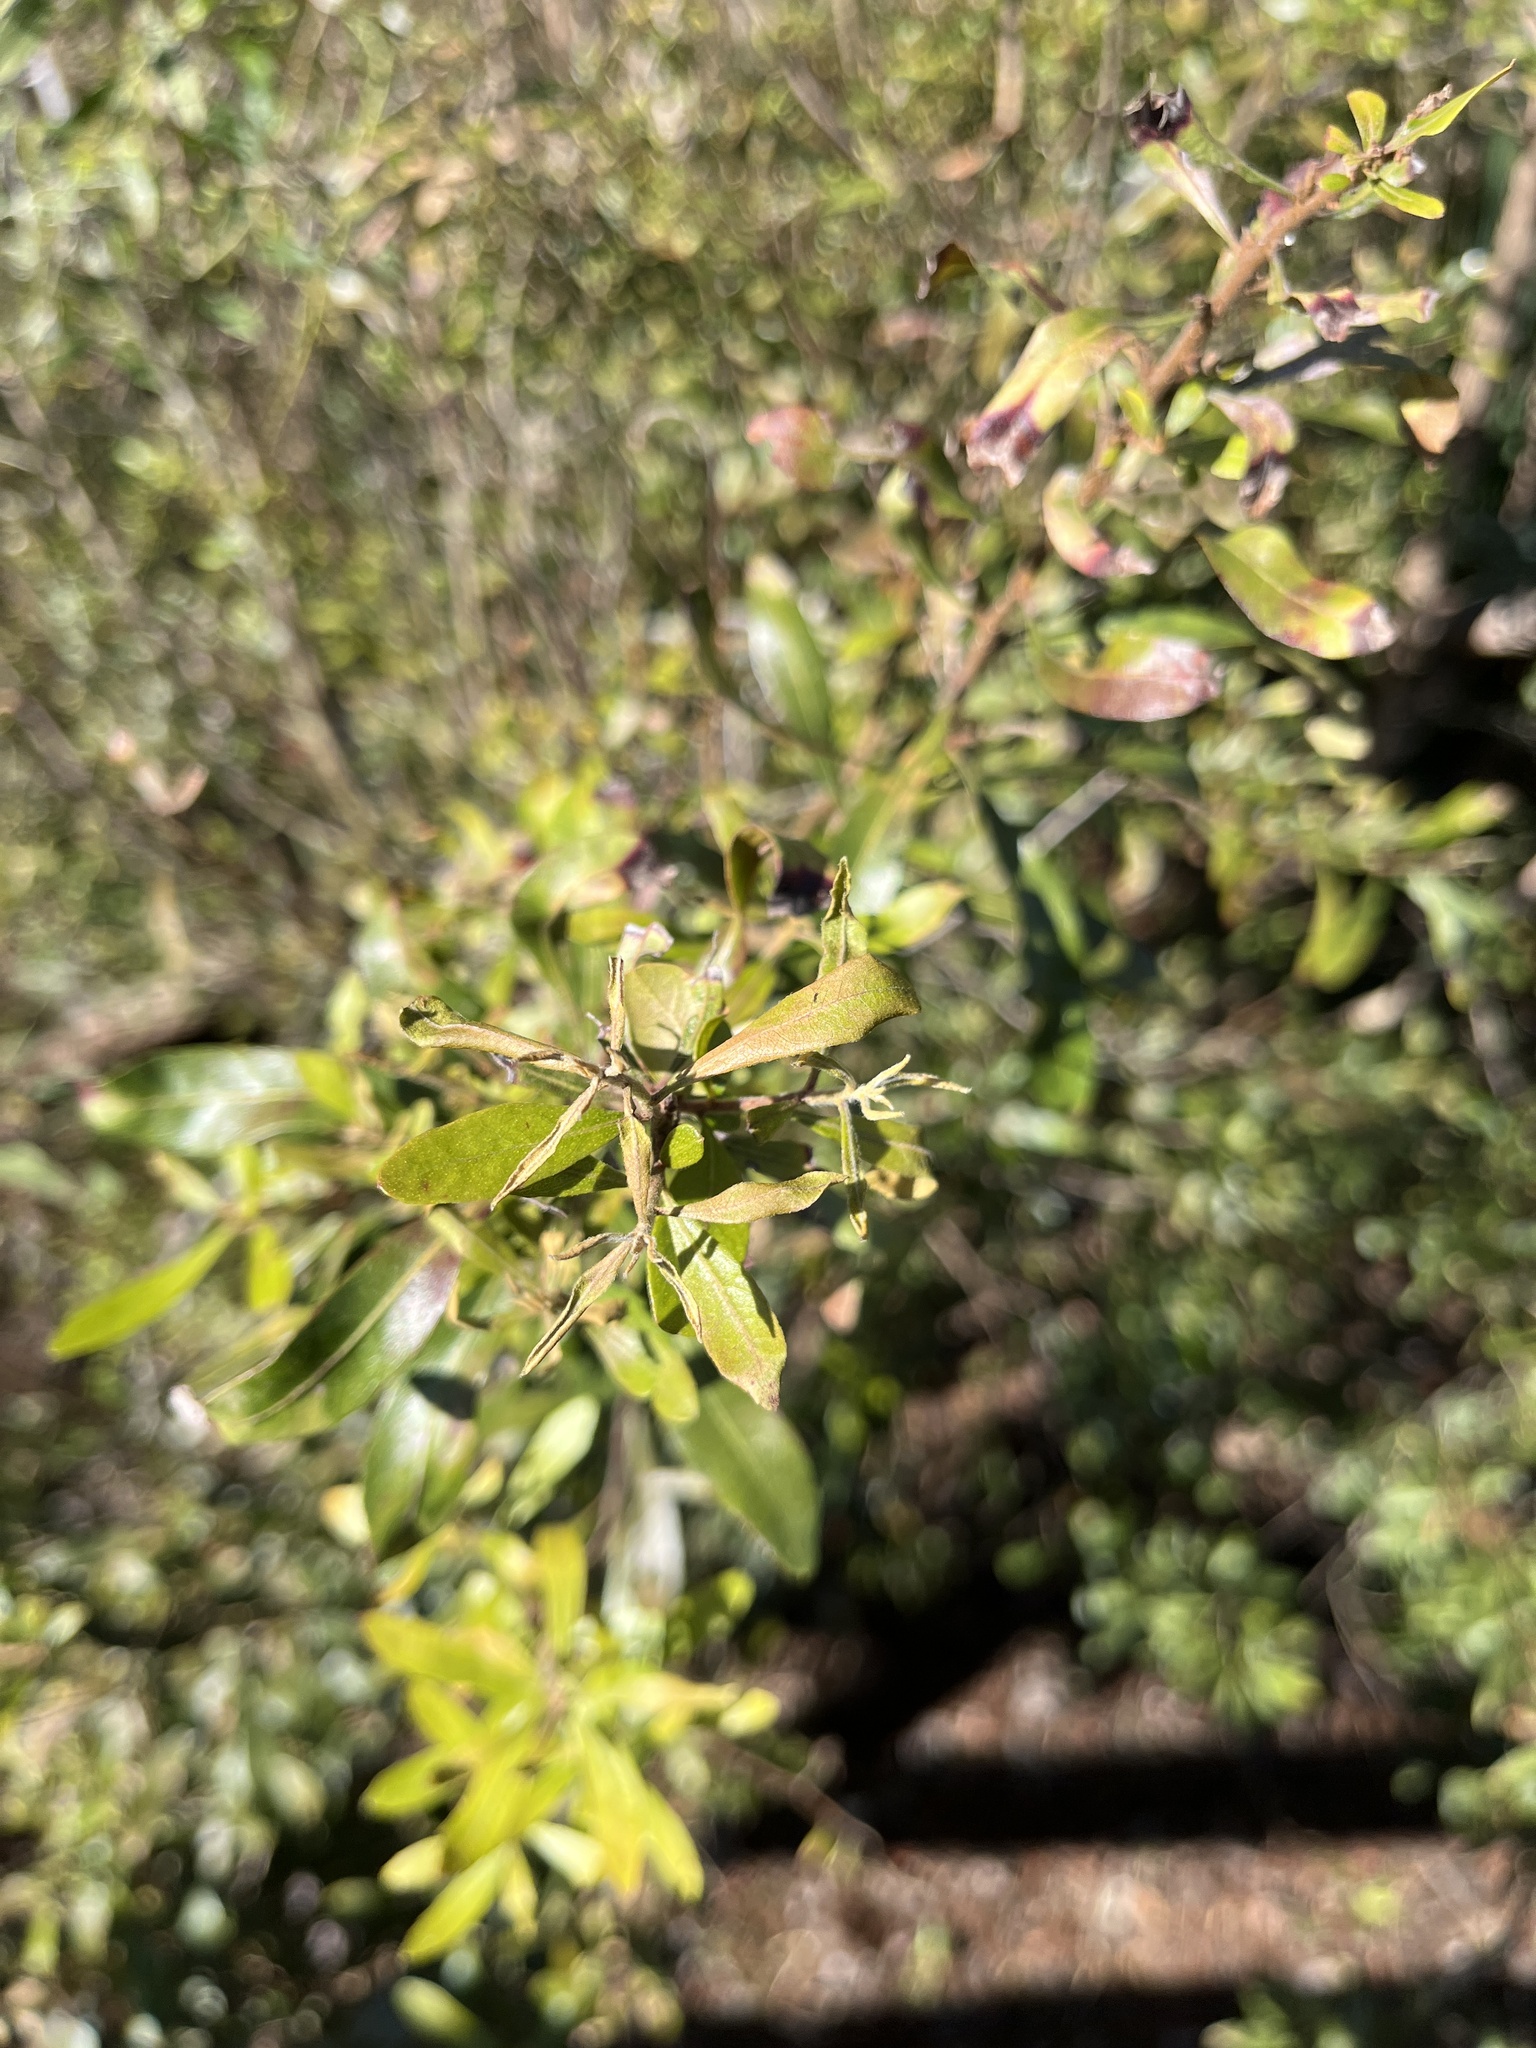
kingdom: Plantae
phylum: Tracheophyta
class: Magnoliopsida
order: Fagales
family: Myricaceae
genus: Morella
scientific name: Morella cerifera
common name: Wax myrtle
